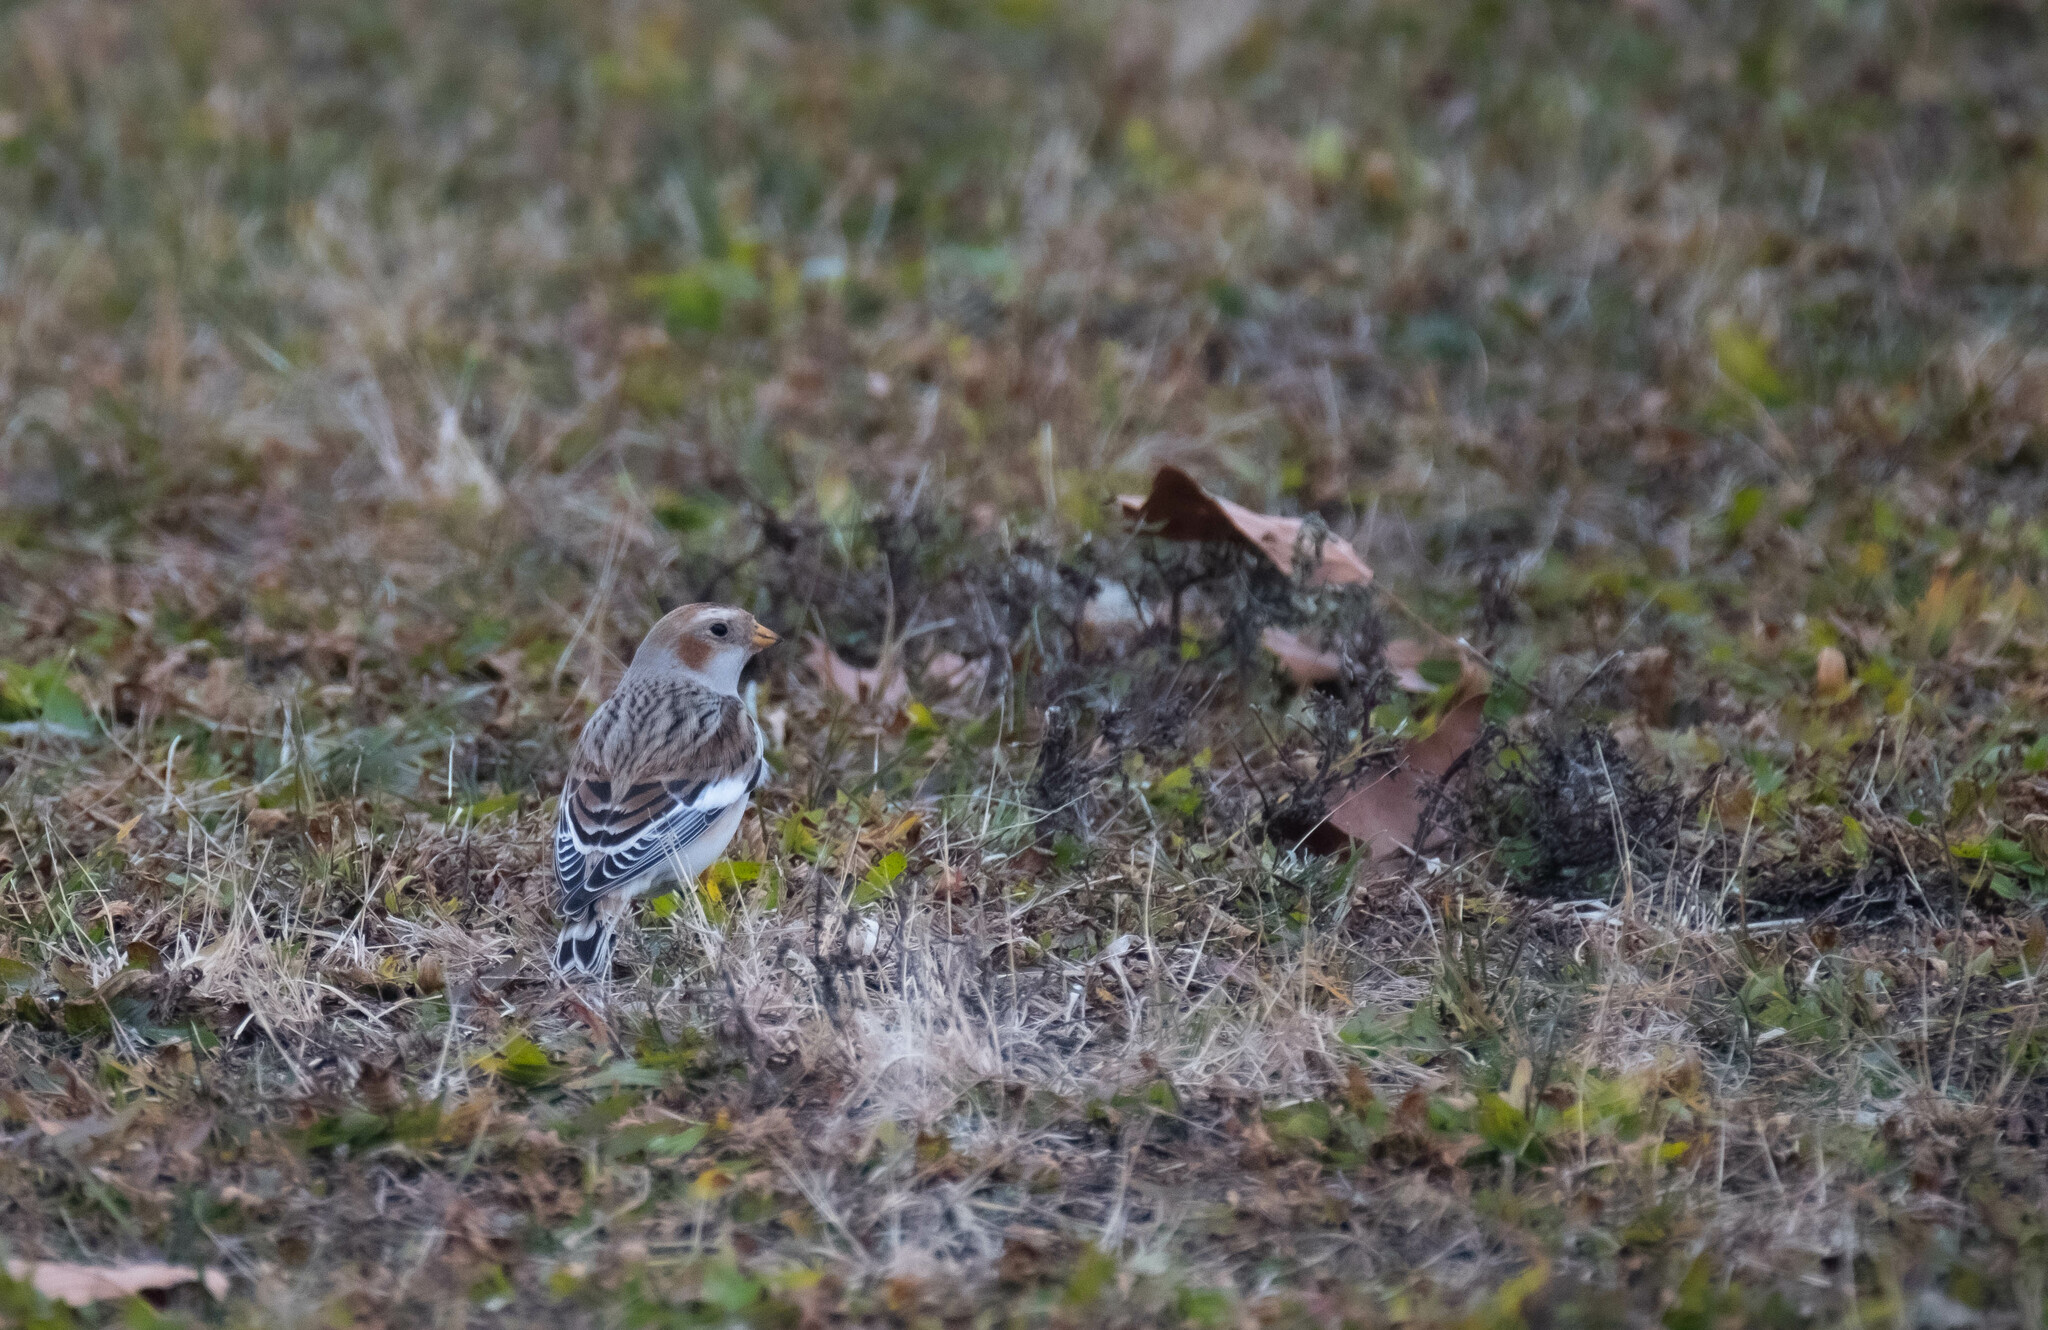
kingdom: Animalia
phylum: Chordata
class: Aves
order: Passeriformes
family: Calcariidae
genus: Plectrophenax
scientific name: Plectrophenax nivalis
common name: Snow bunting
